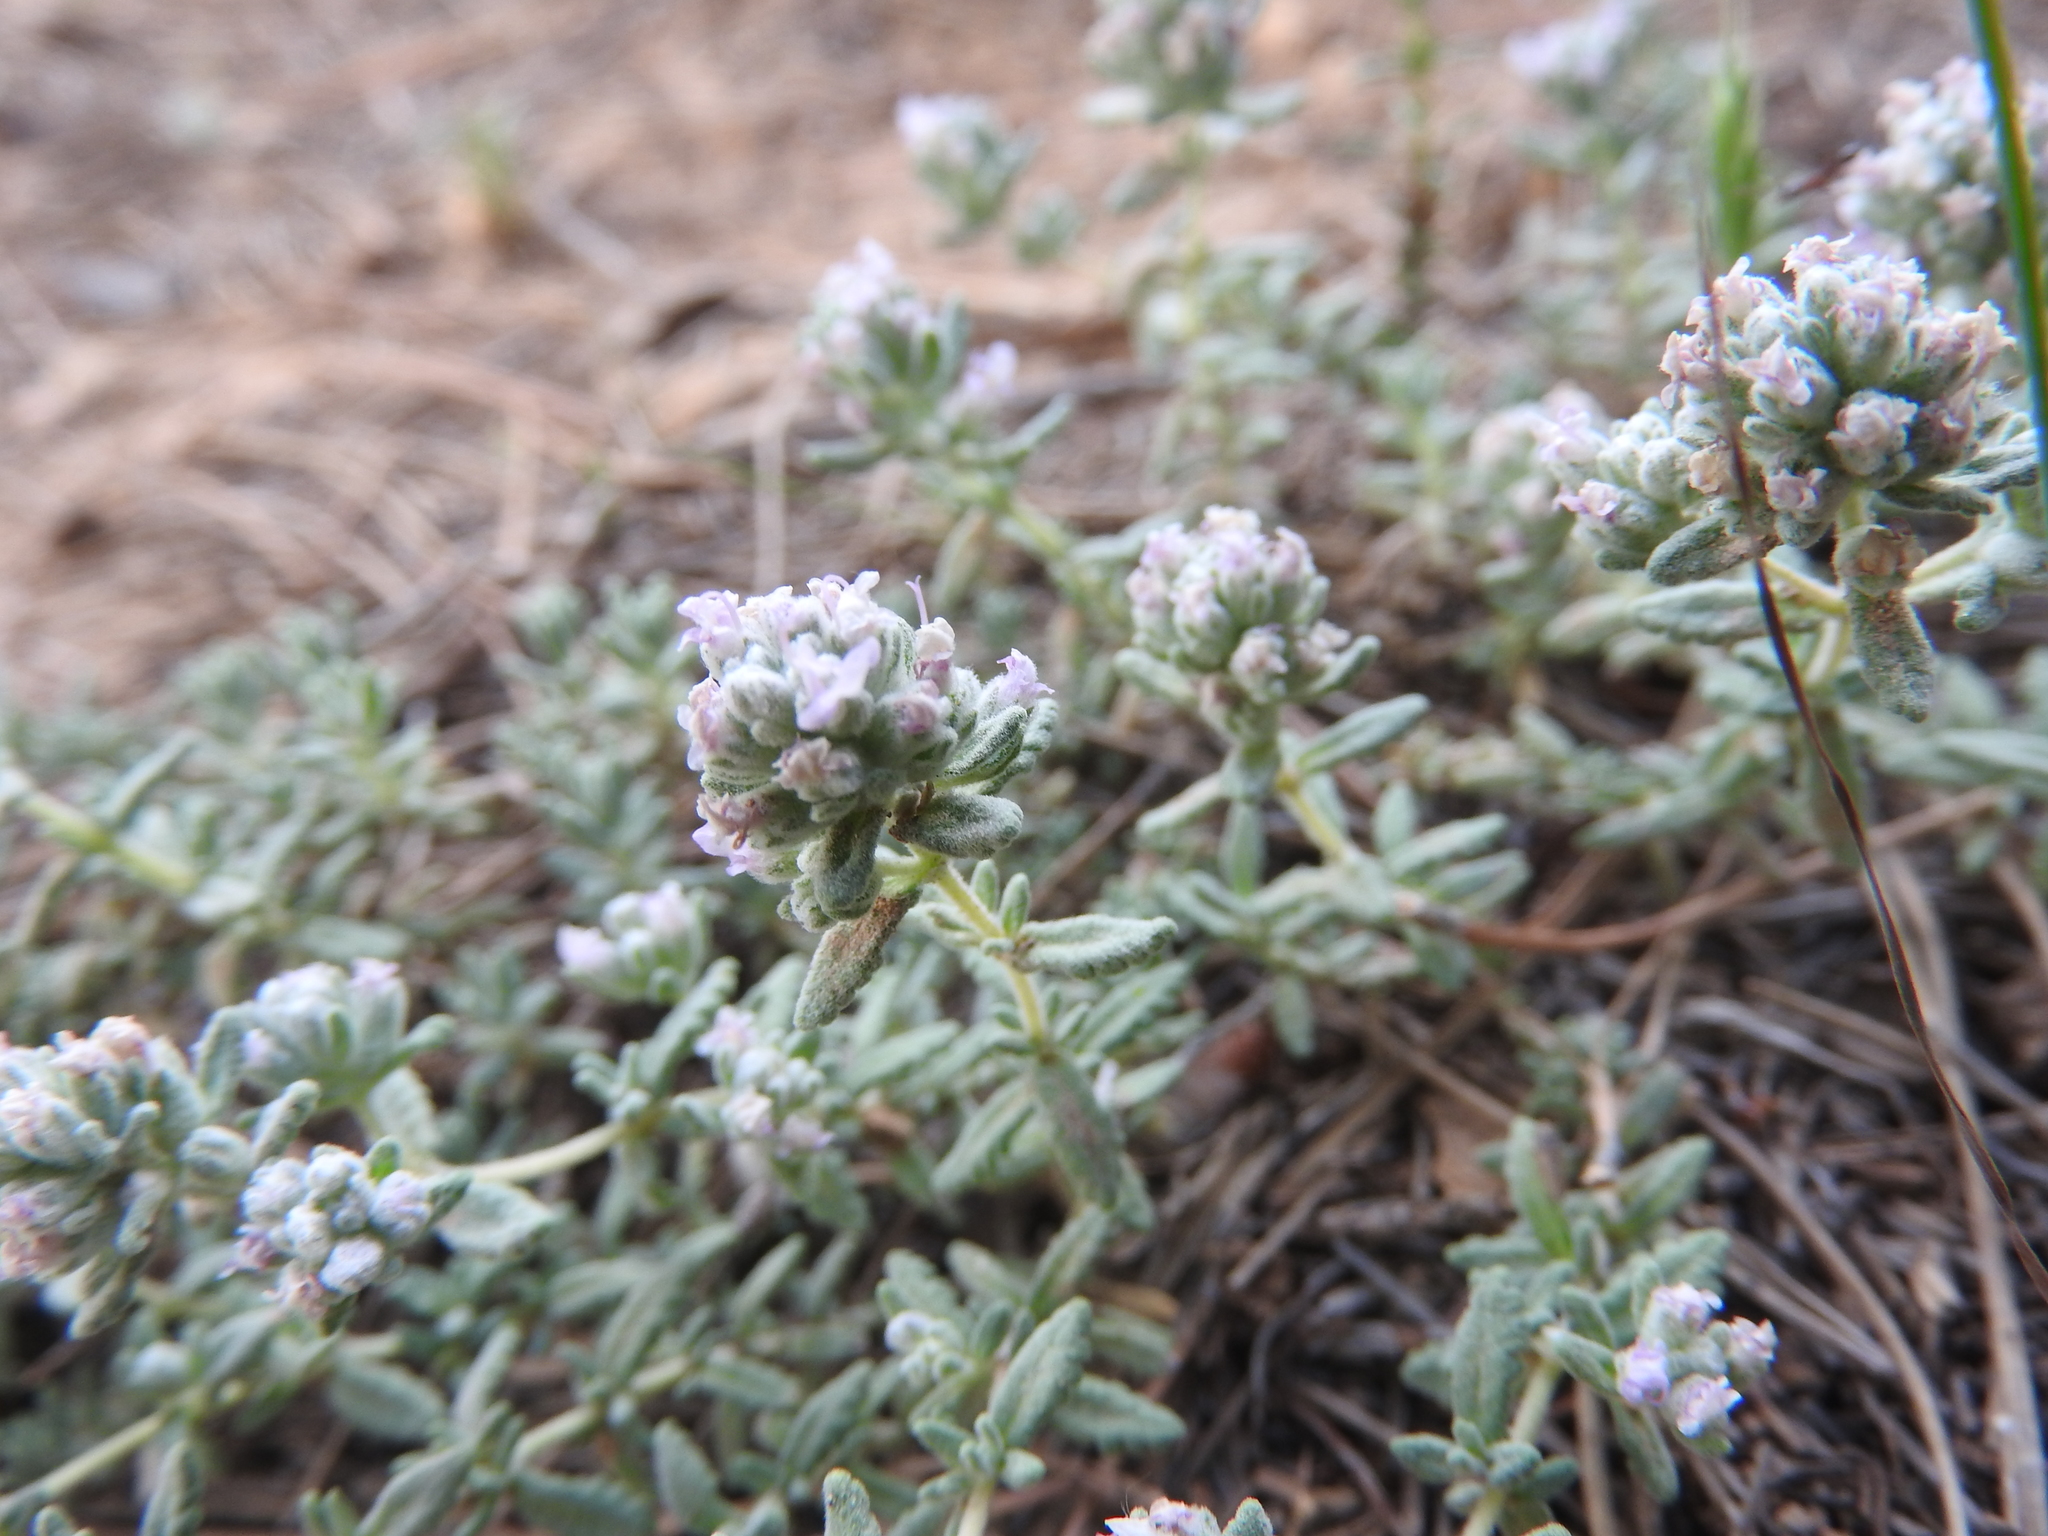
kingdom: Plantae
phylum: Tracheophyta
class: Magnoliopsida
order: Lamiales
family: Lamiaceae
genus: Teucrium
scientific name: Teucrium capitatum
